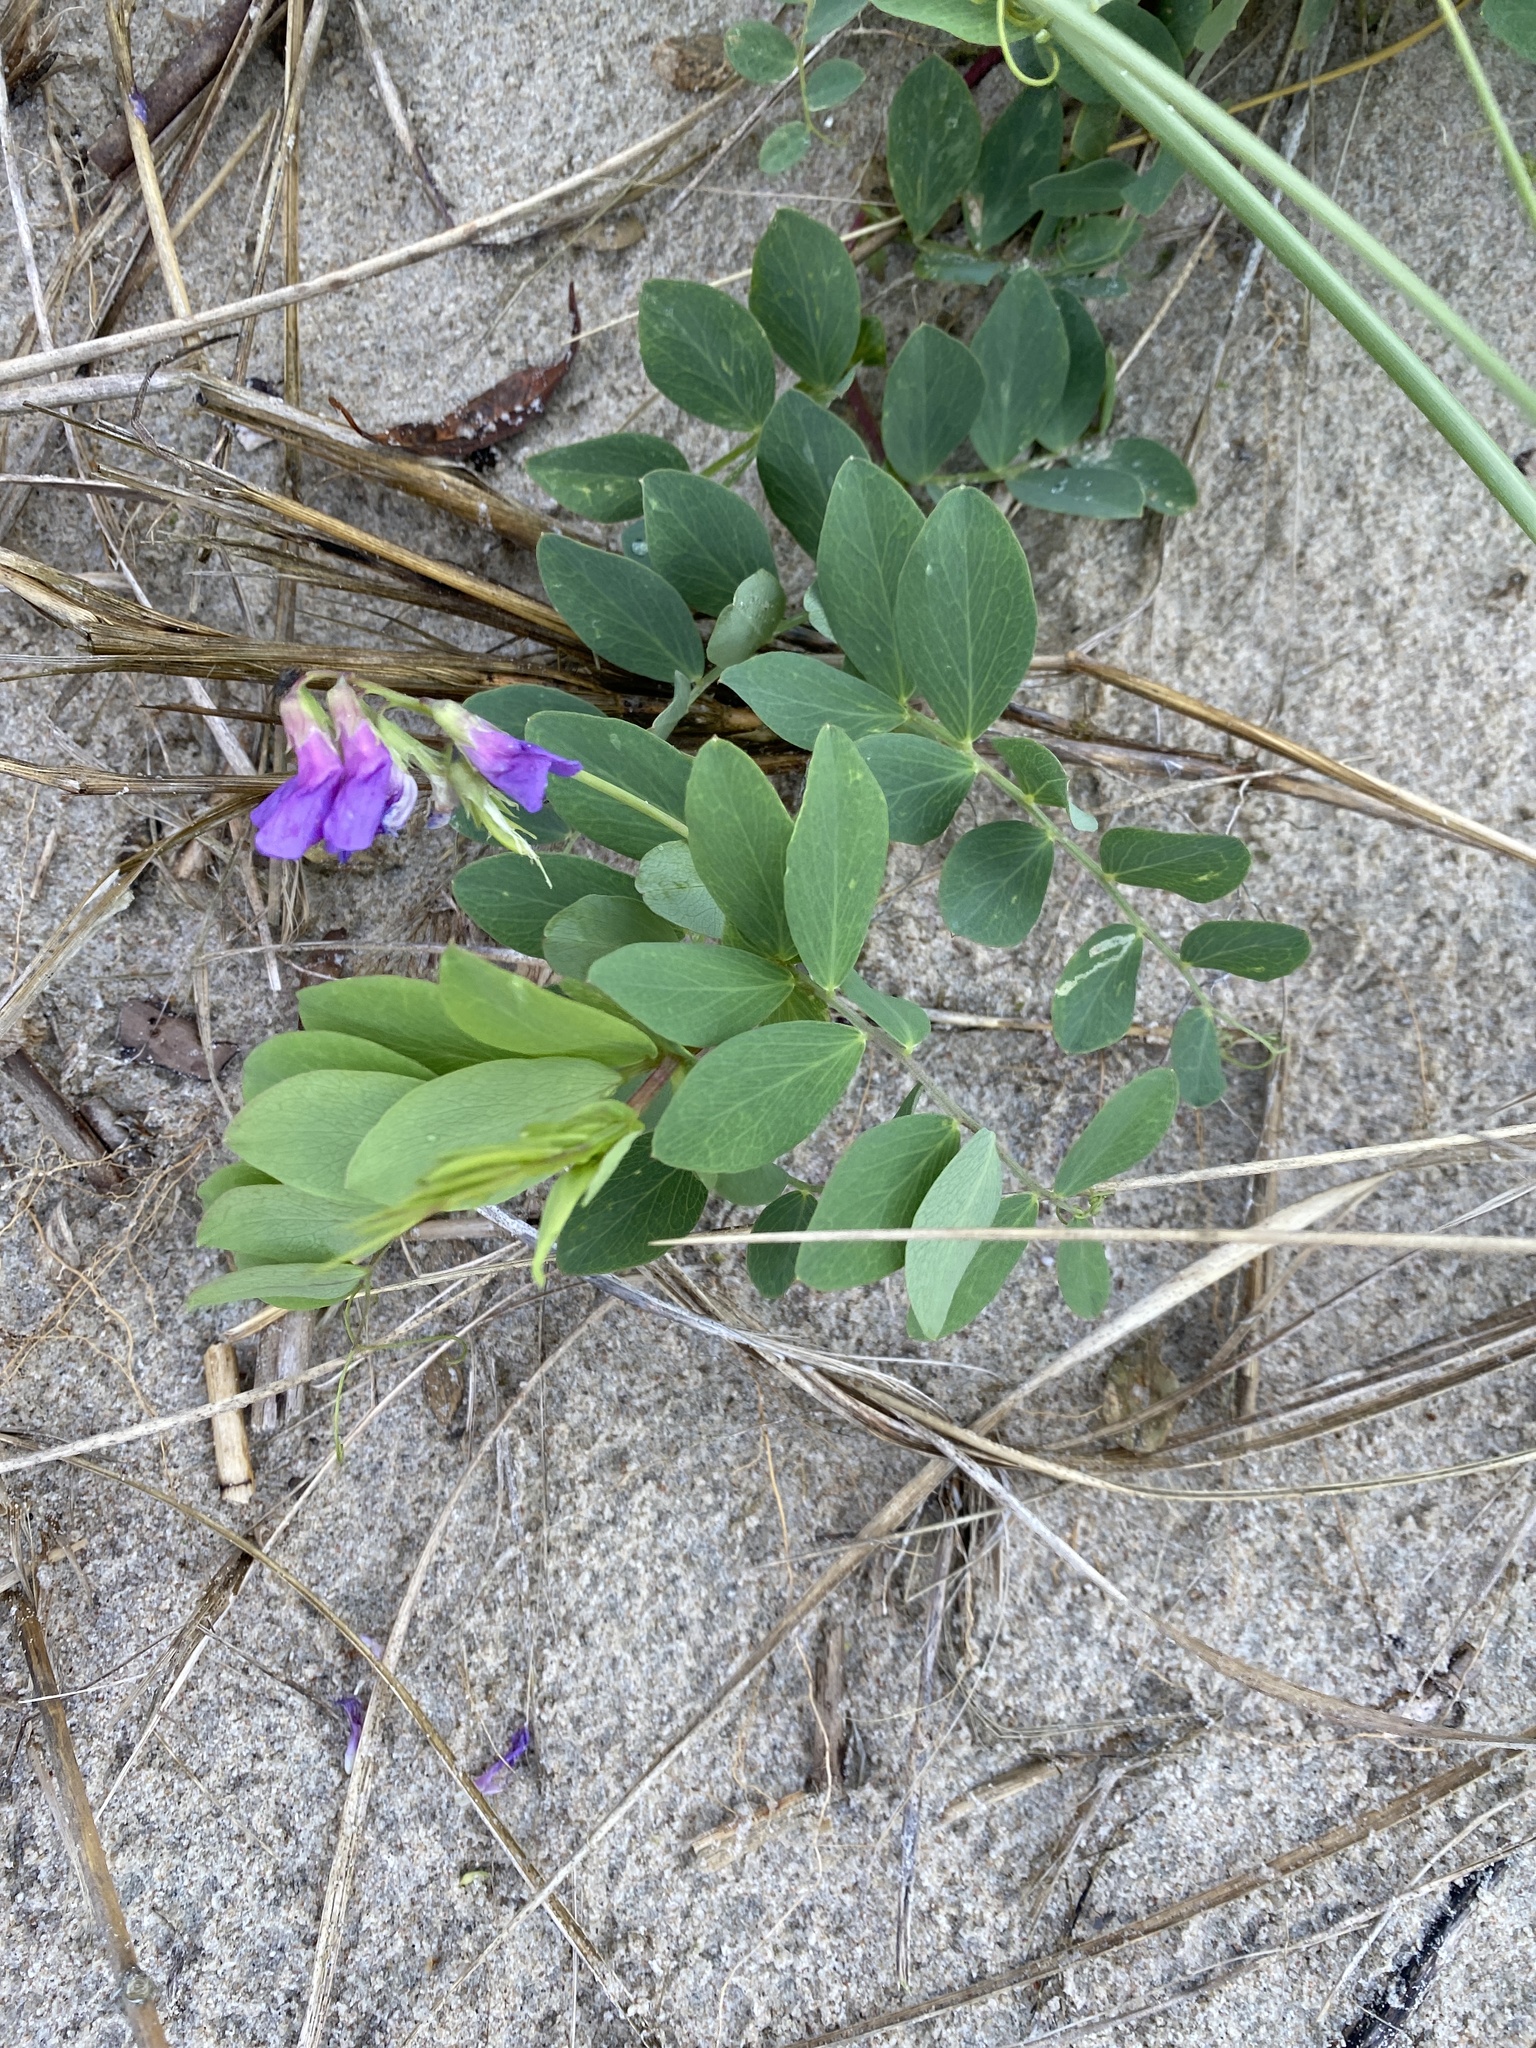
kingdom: Plantae
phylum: Tracheophyta
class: Magnoliopsida
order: Fabales
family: Fabaceae
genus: Lathyrus
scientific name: Lathyrus japonicus
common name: Sea pea
